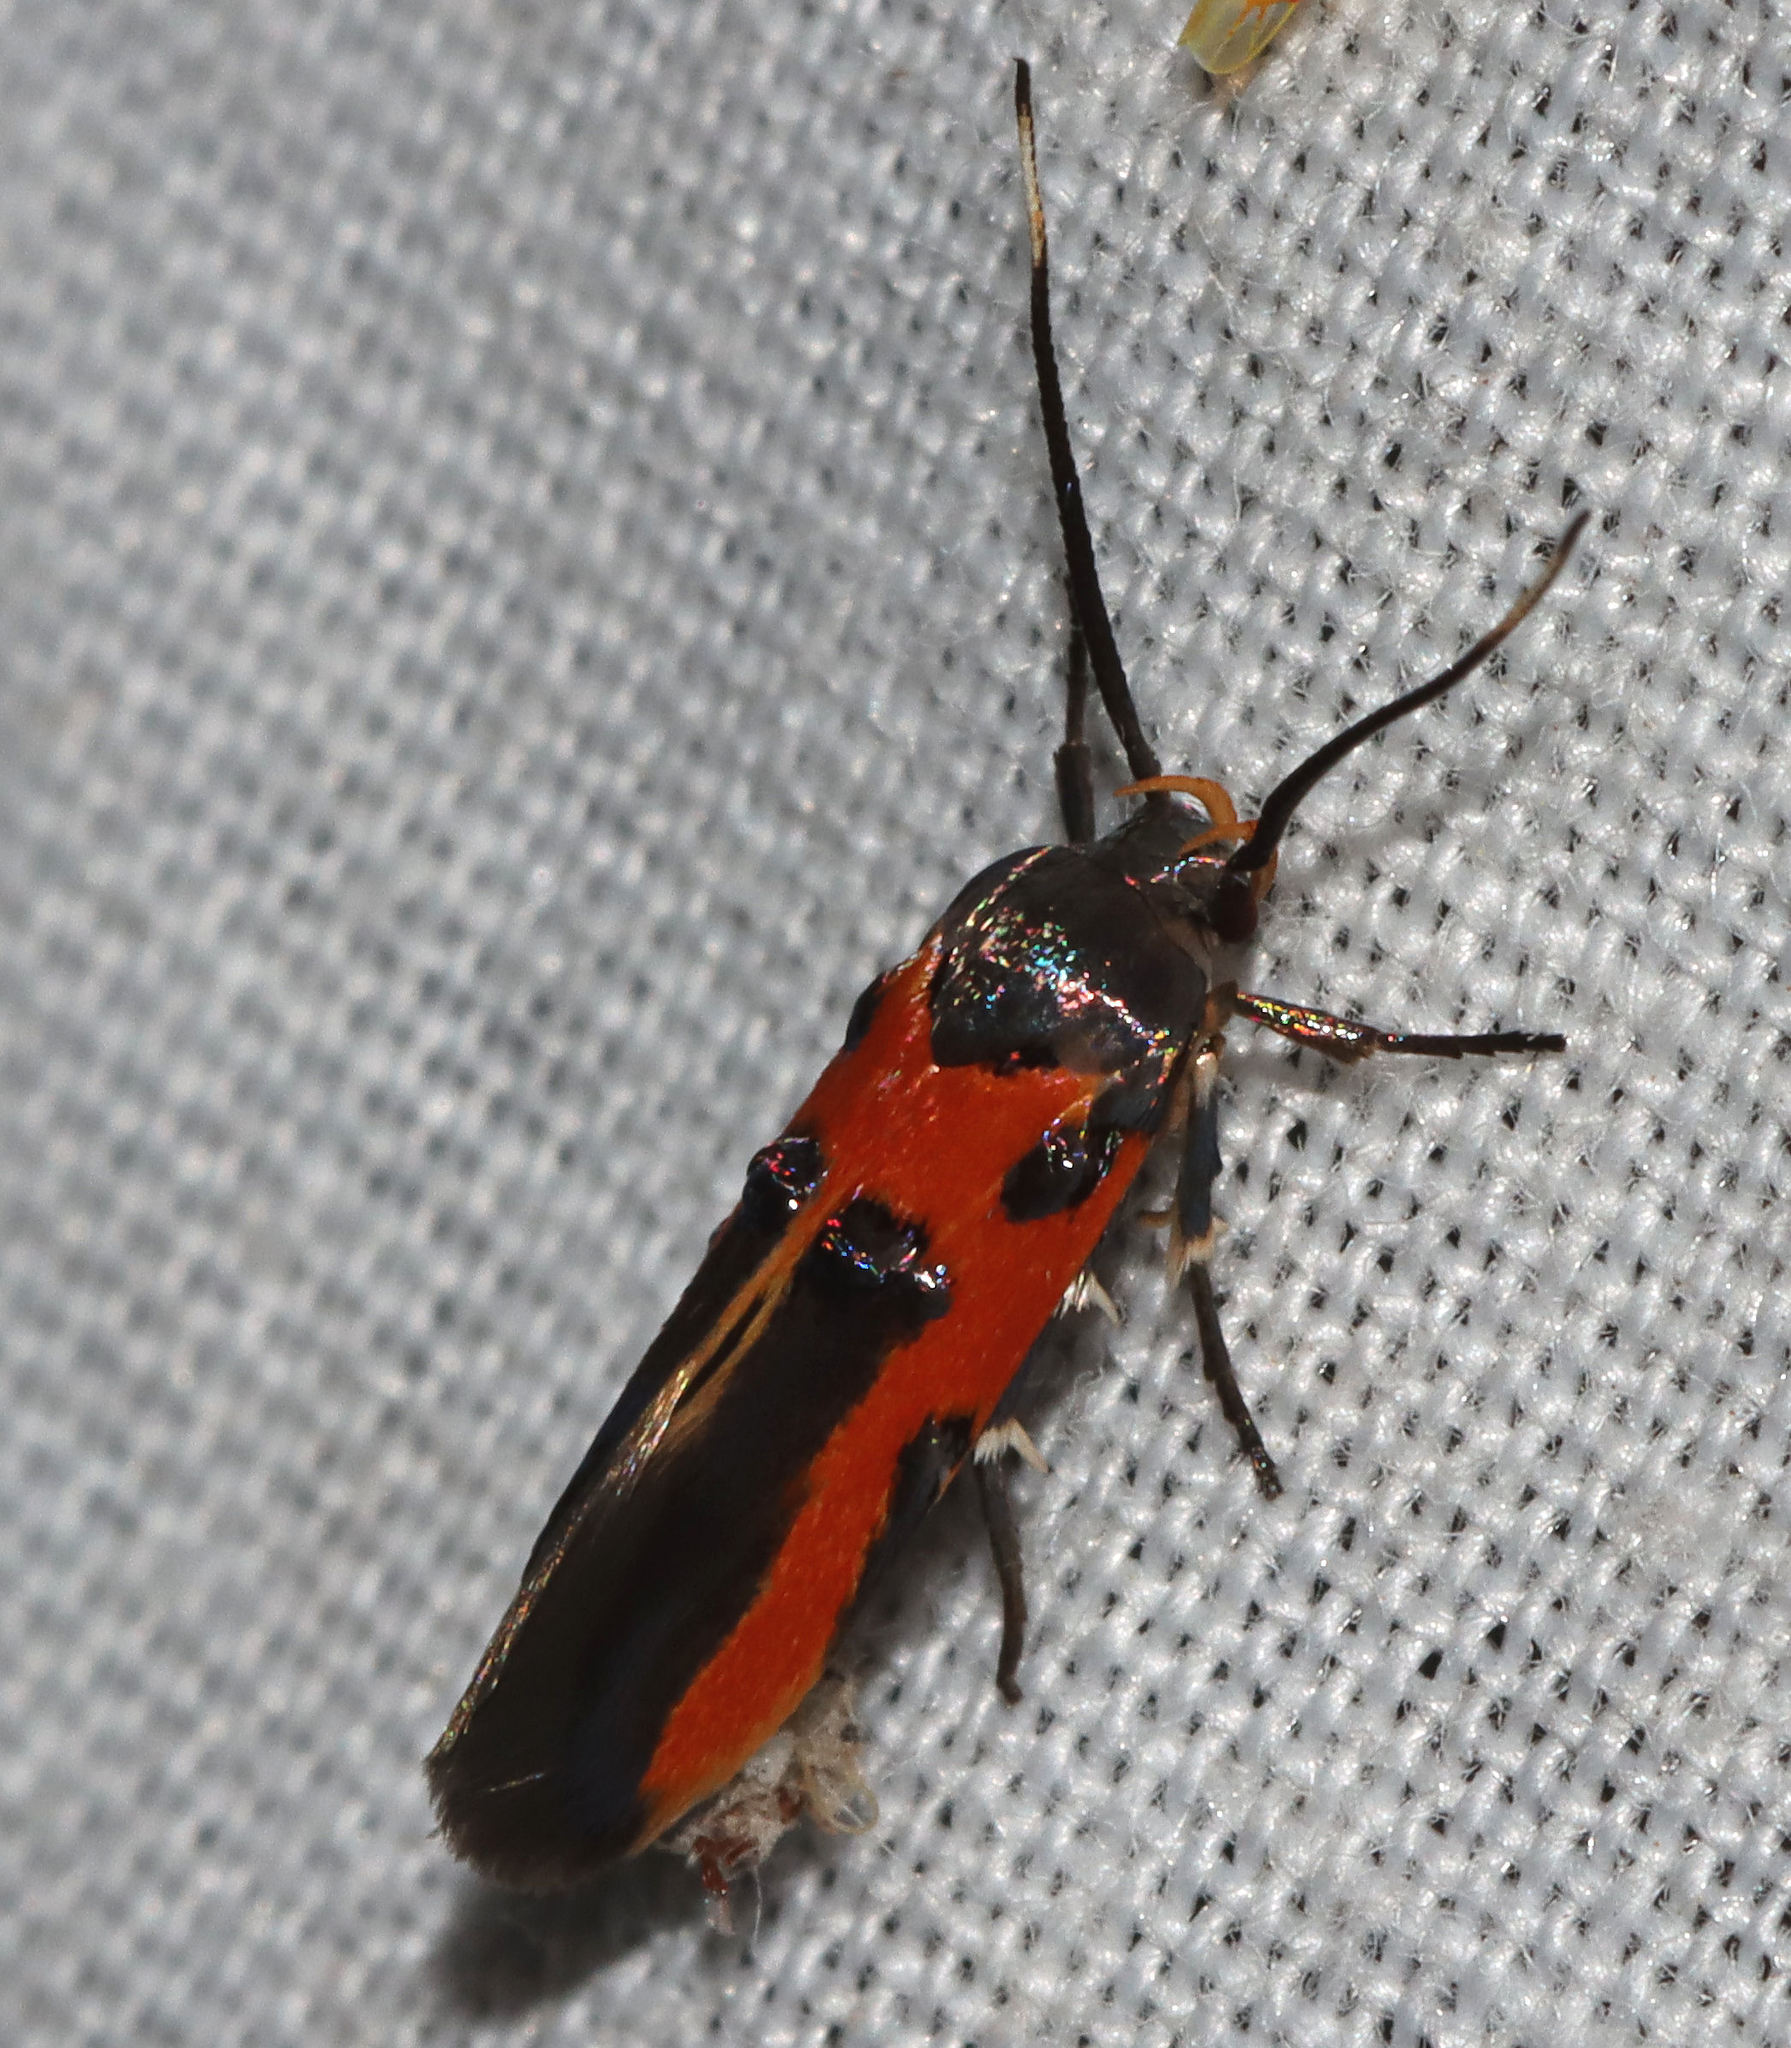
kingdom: Animalia
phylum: Arthropoda
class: Insecta
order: Lepidoptera
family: Cosmopterigidae
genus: Euclemensia
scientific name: Euclemensia bassettella
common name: Kermes scale moth
